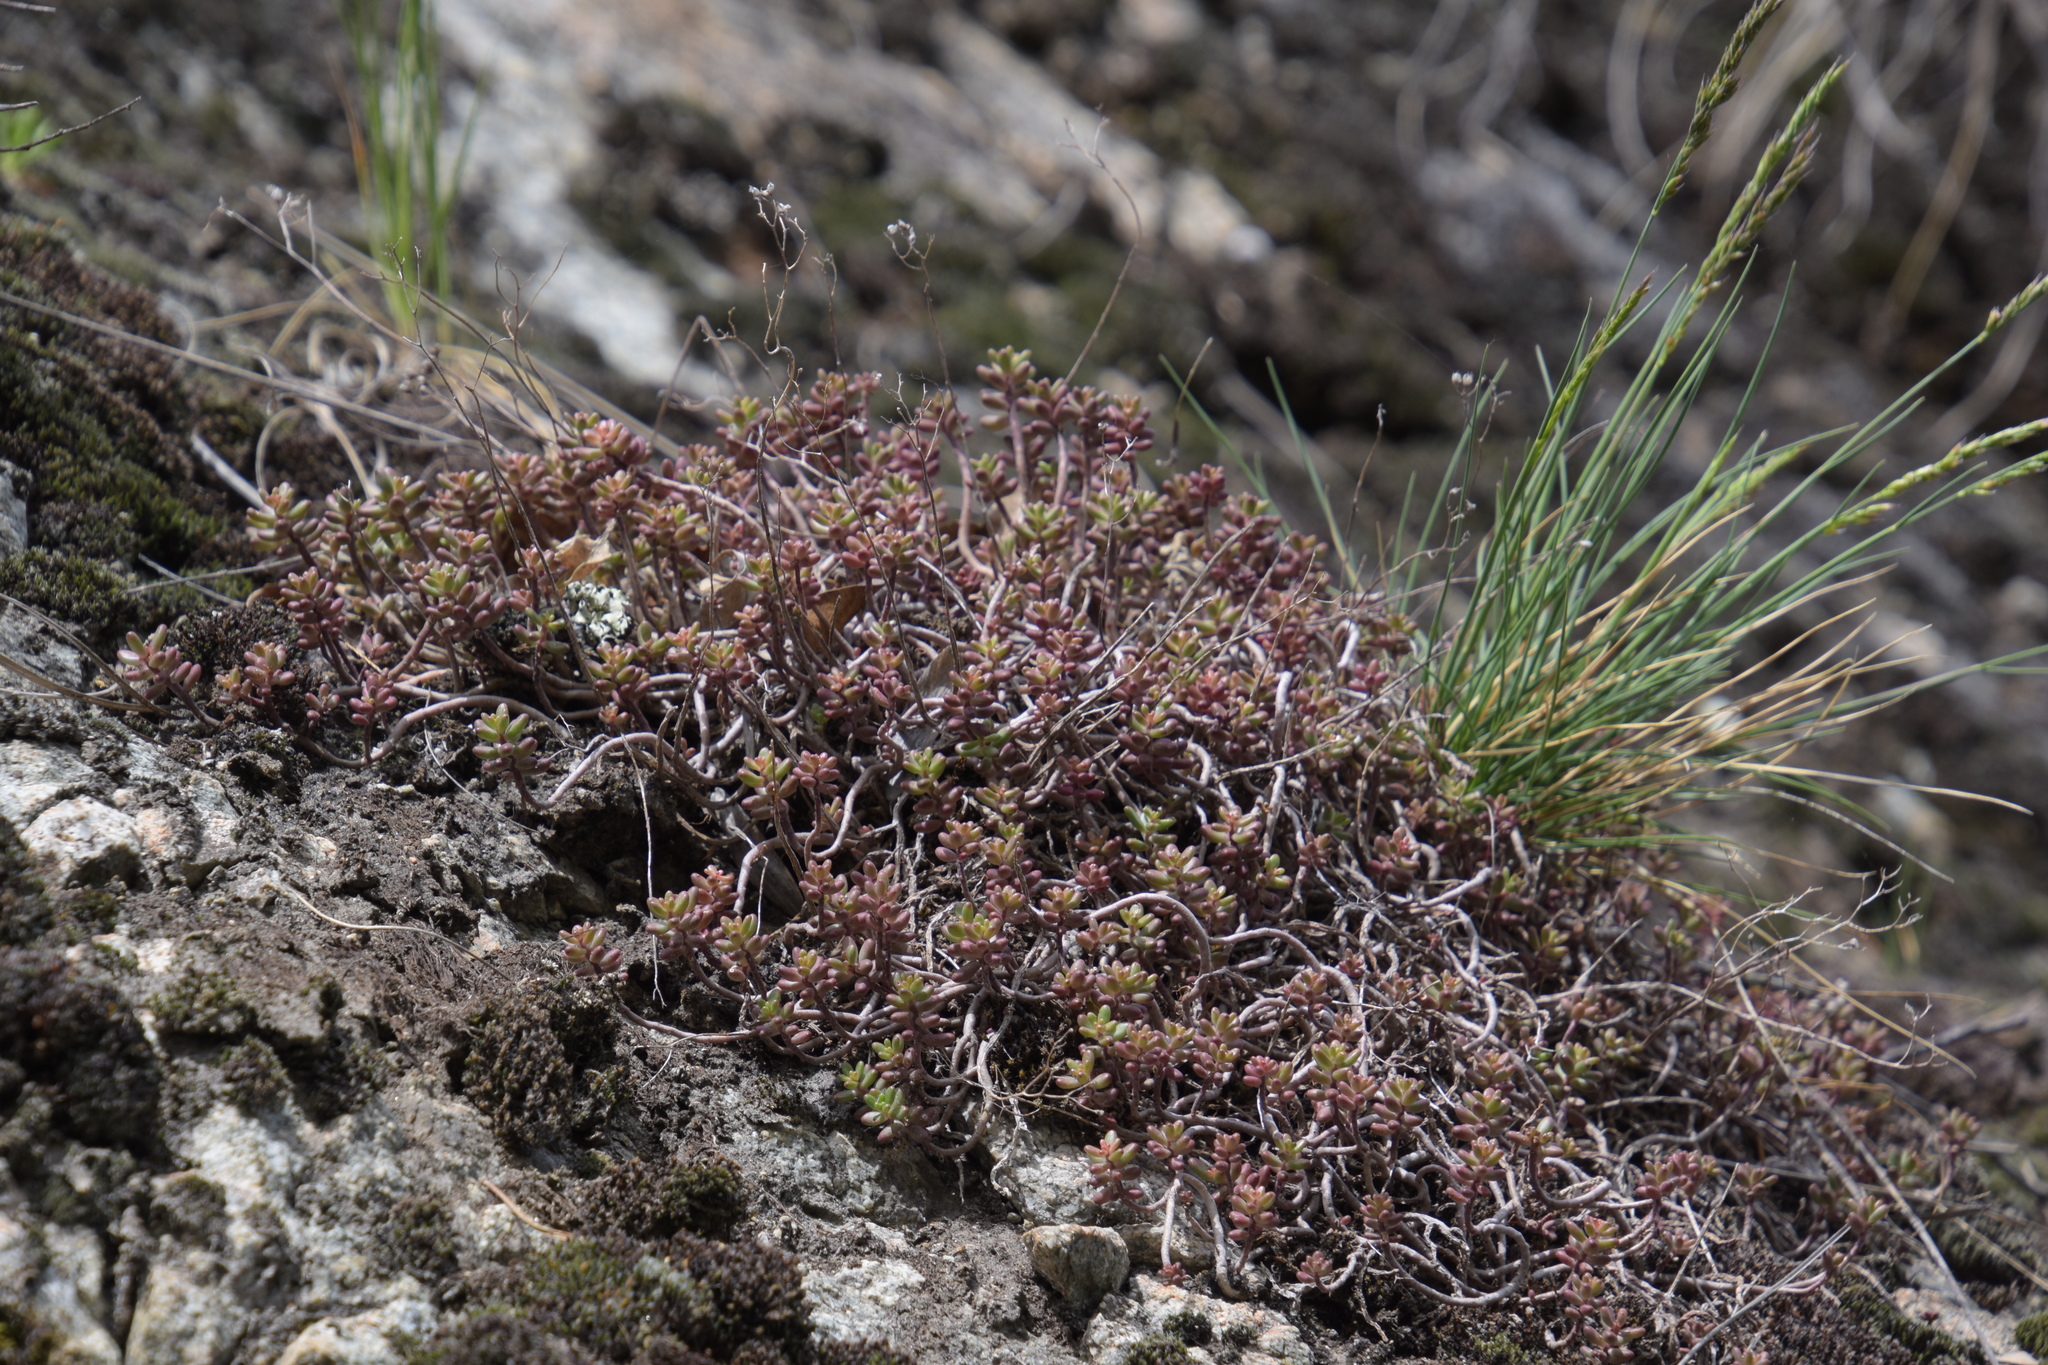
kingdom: Plantae
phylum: Tracheophyta
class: Magnoliopsida
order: Saxifragales
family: Crassulaceae
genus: Sedum
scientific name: Sedum album
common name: White stonecrop
